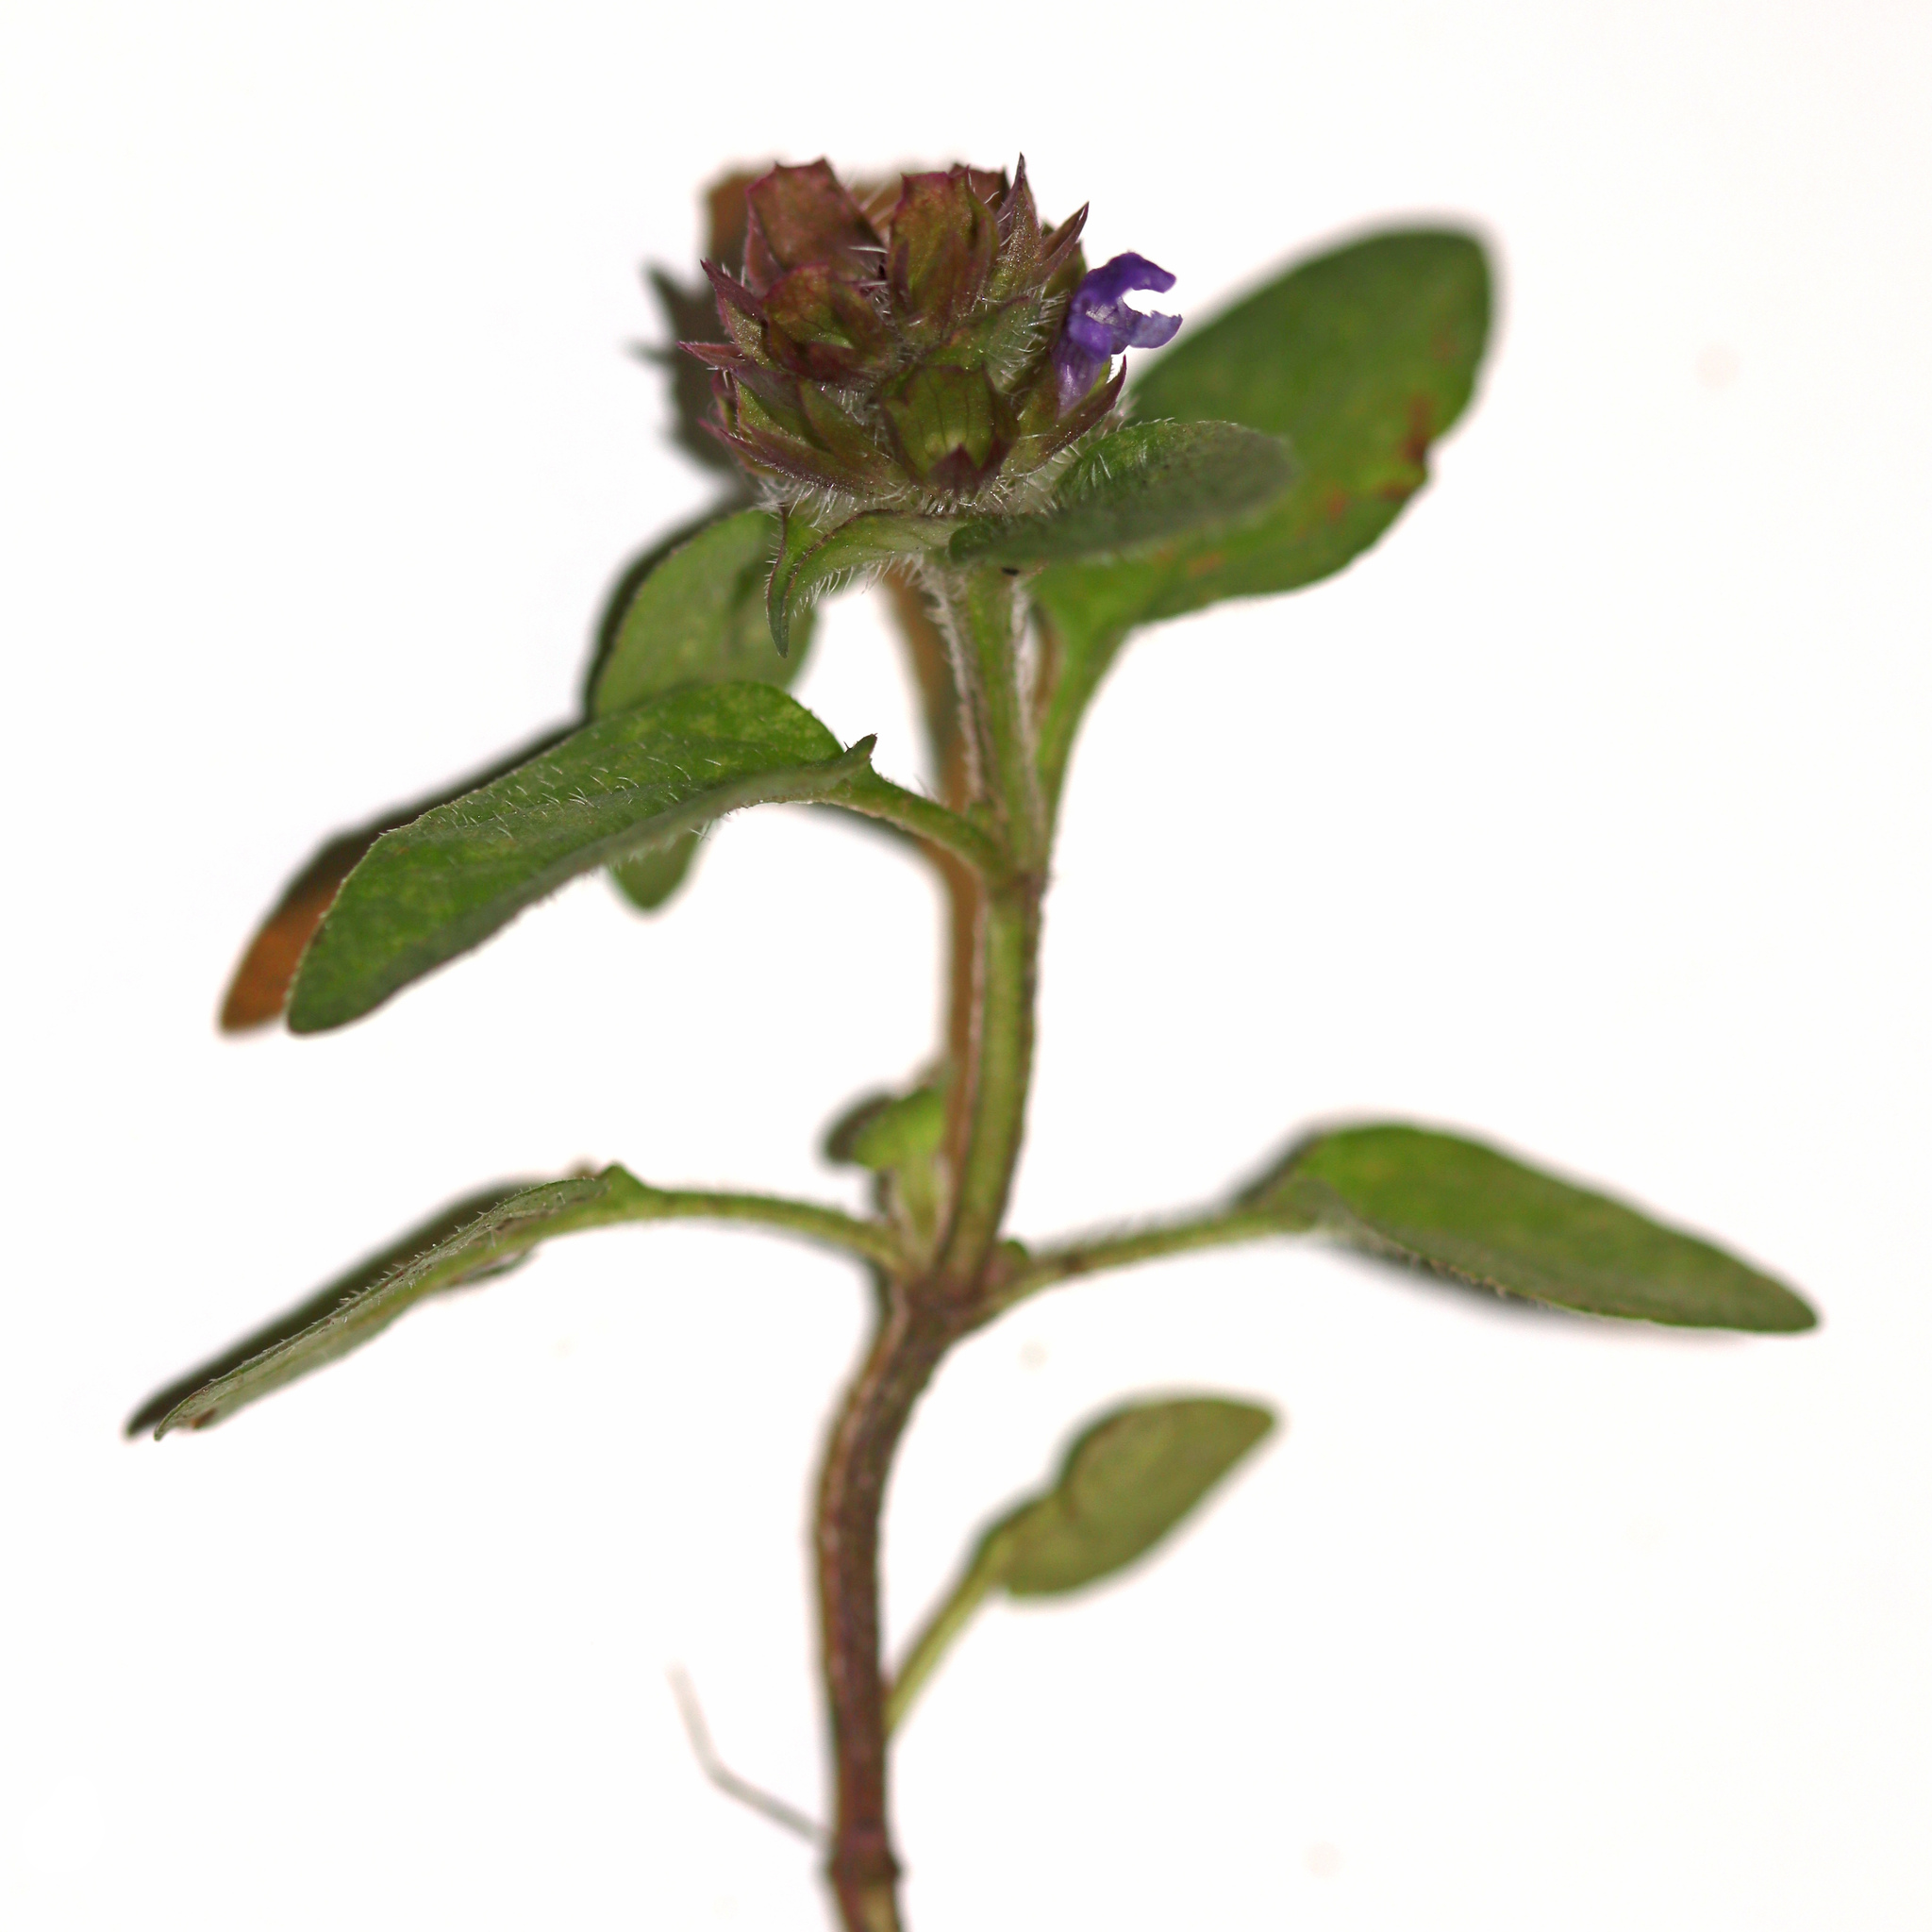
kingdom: Plantae
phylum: Tracheophyta
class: Magnoliopsida
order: Lamiales
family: Lamiaceae
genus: Prunella
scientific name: Prunella vulgaris
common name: Heal-all
